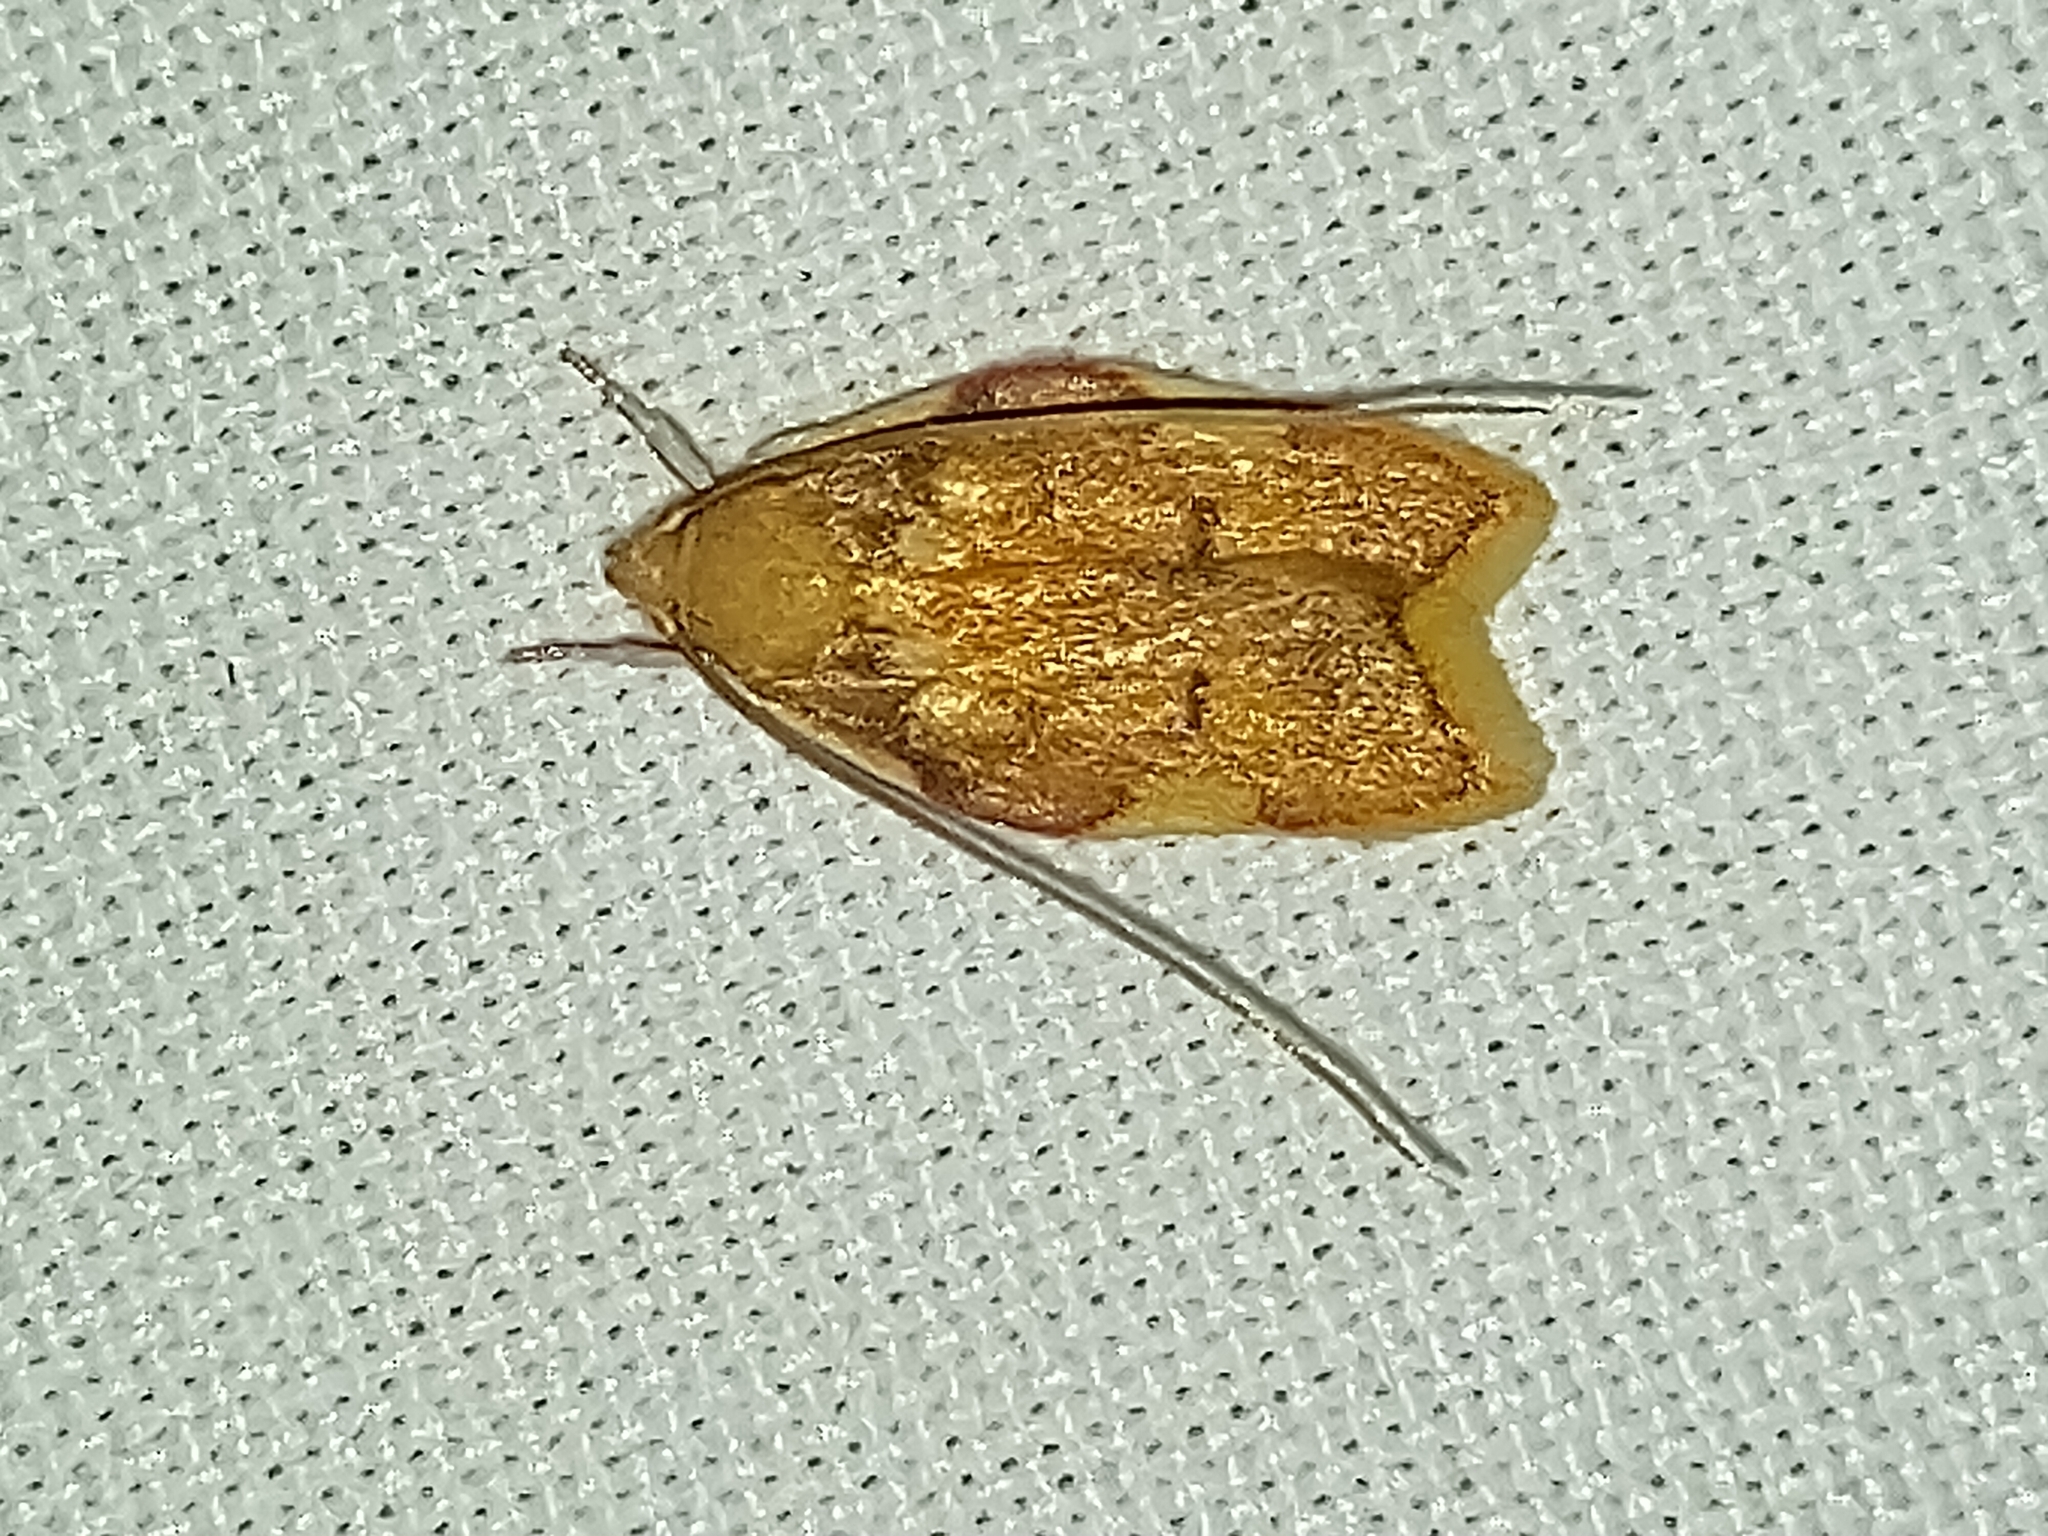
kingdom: Animalia
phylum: Arthropoda
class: Insecta
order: Lepidoptera
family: Peleopodidae
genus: Carcina
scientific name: Carcina quercana
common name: Moth
